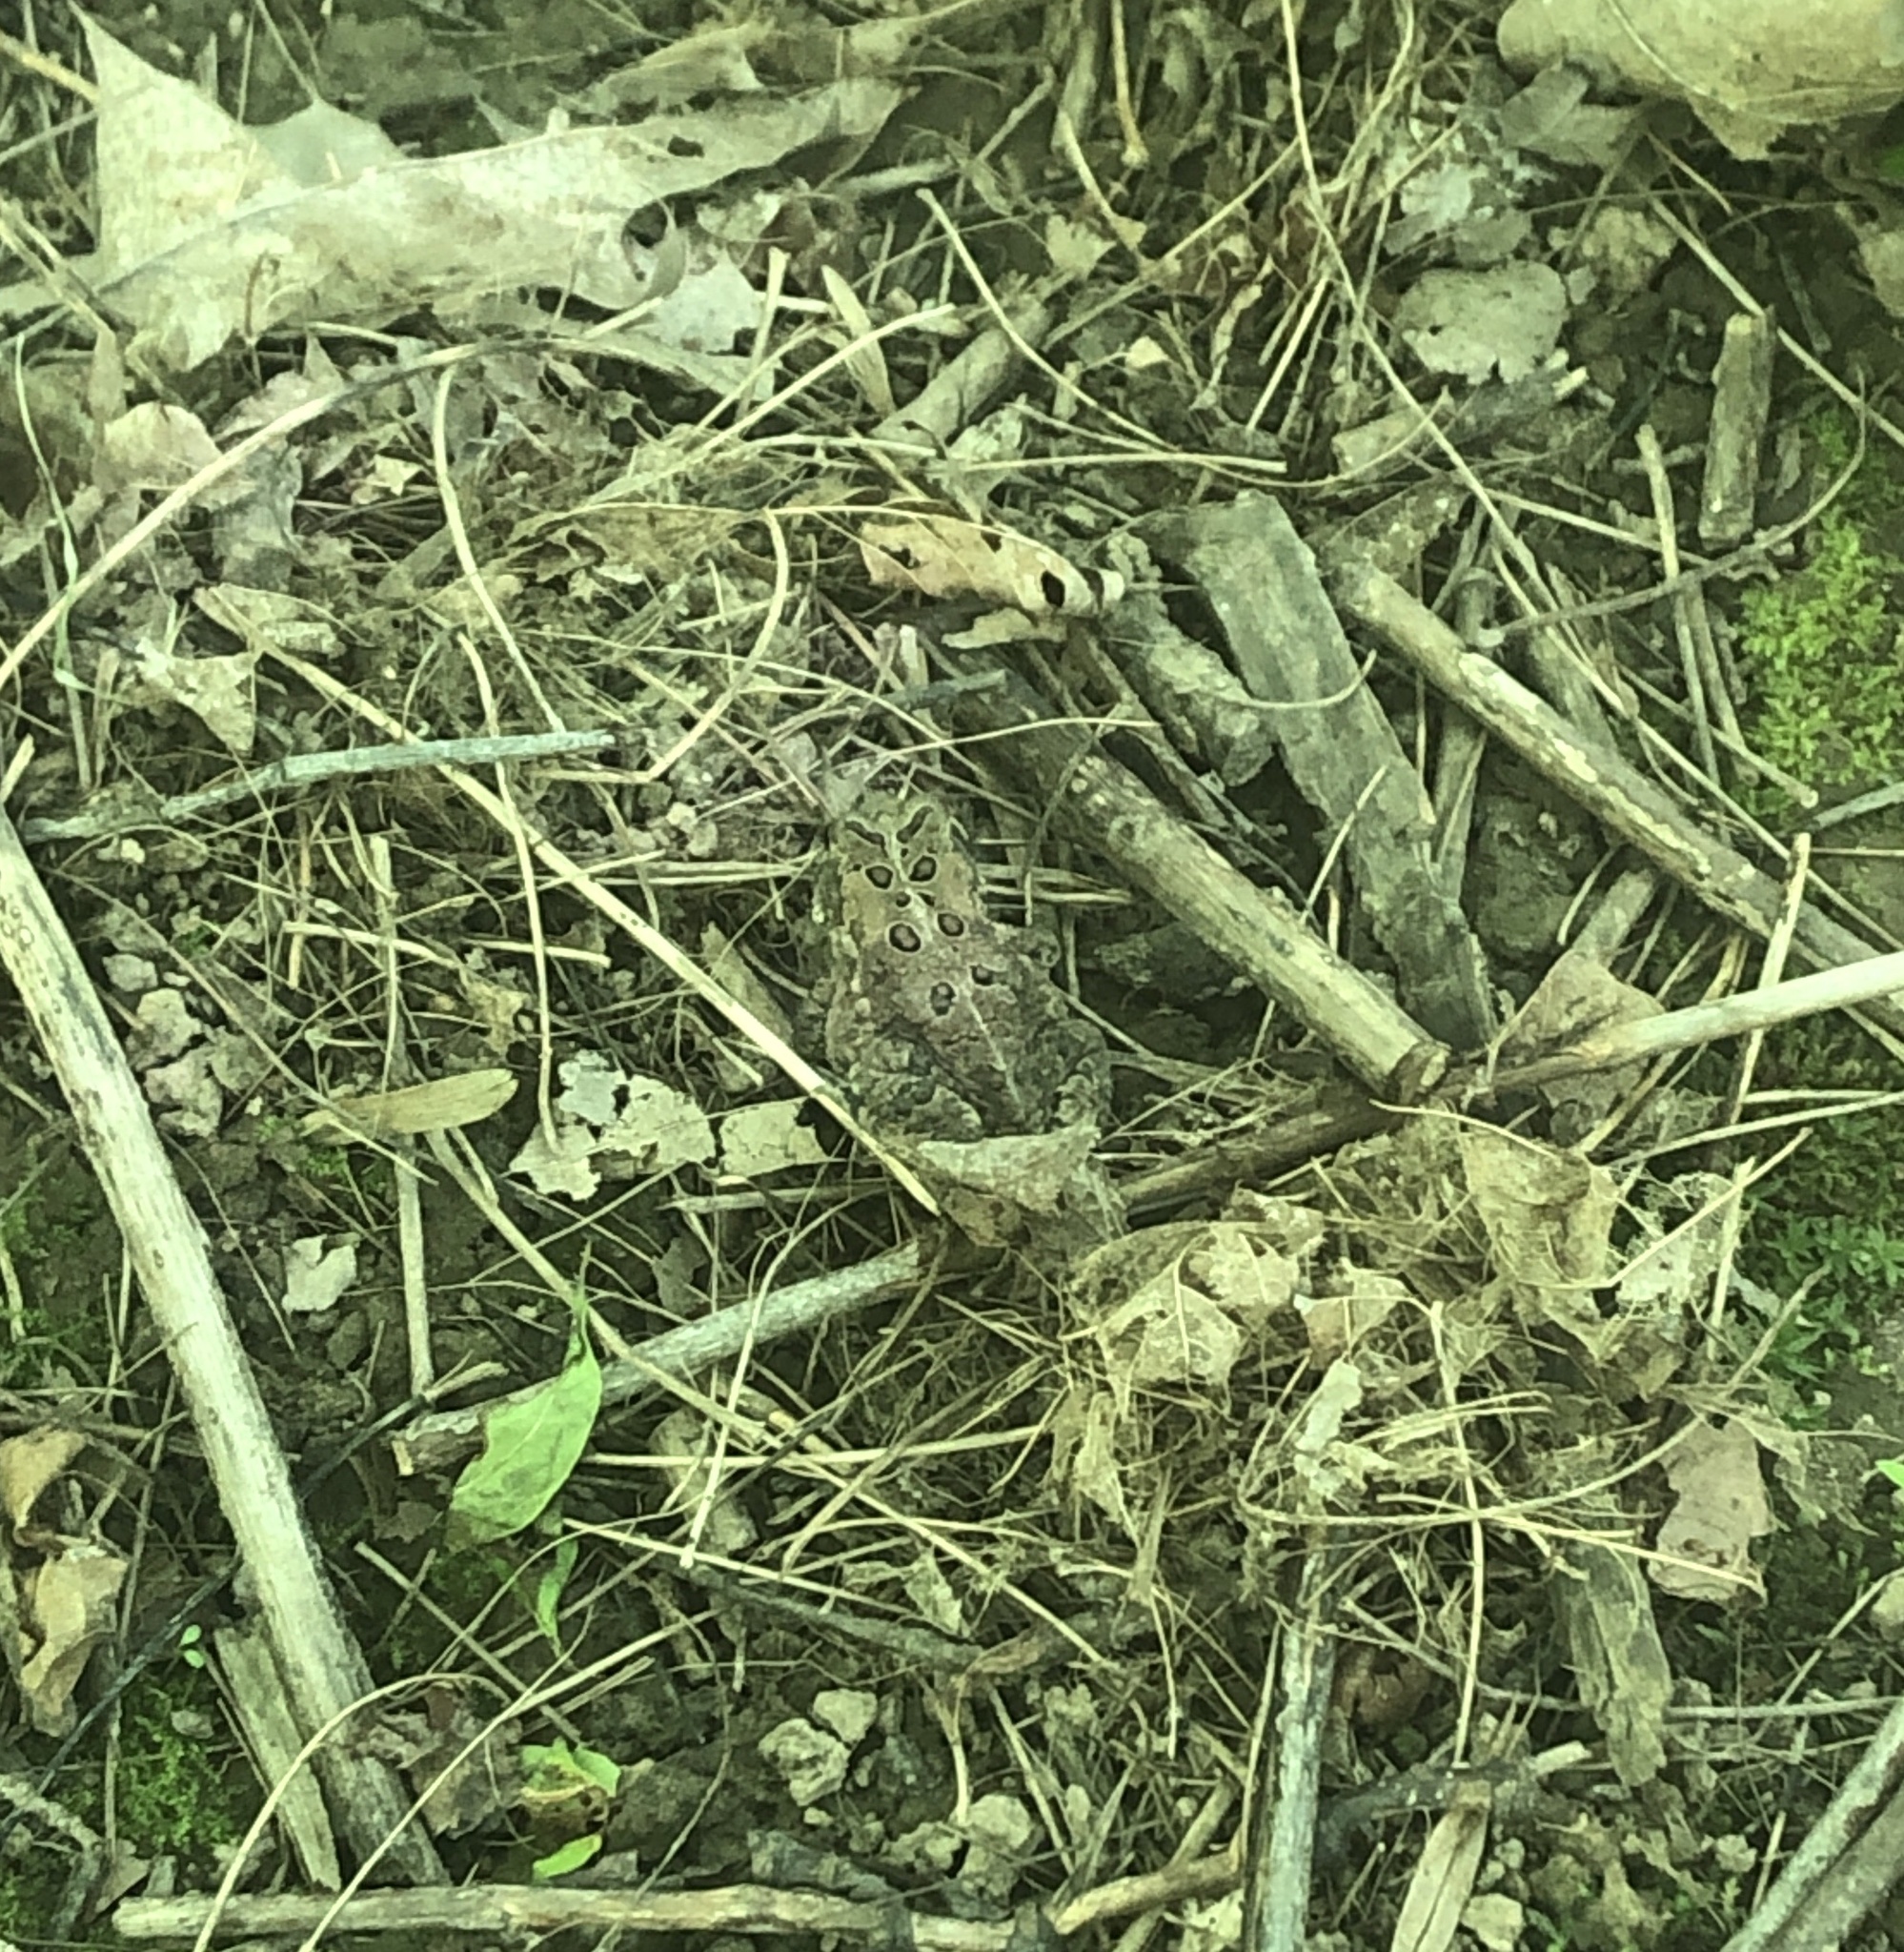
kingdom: Animalia
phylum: Chordata
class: Amphibia
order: Anura
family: Bufonidae
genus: Anaxyrus
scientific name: Anaxyrus americanus
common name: American toad
